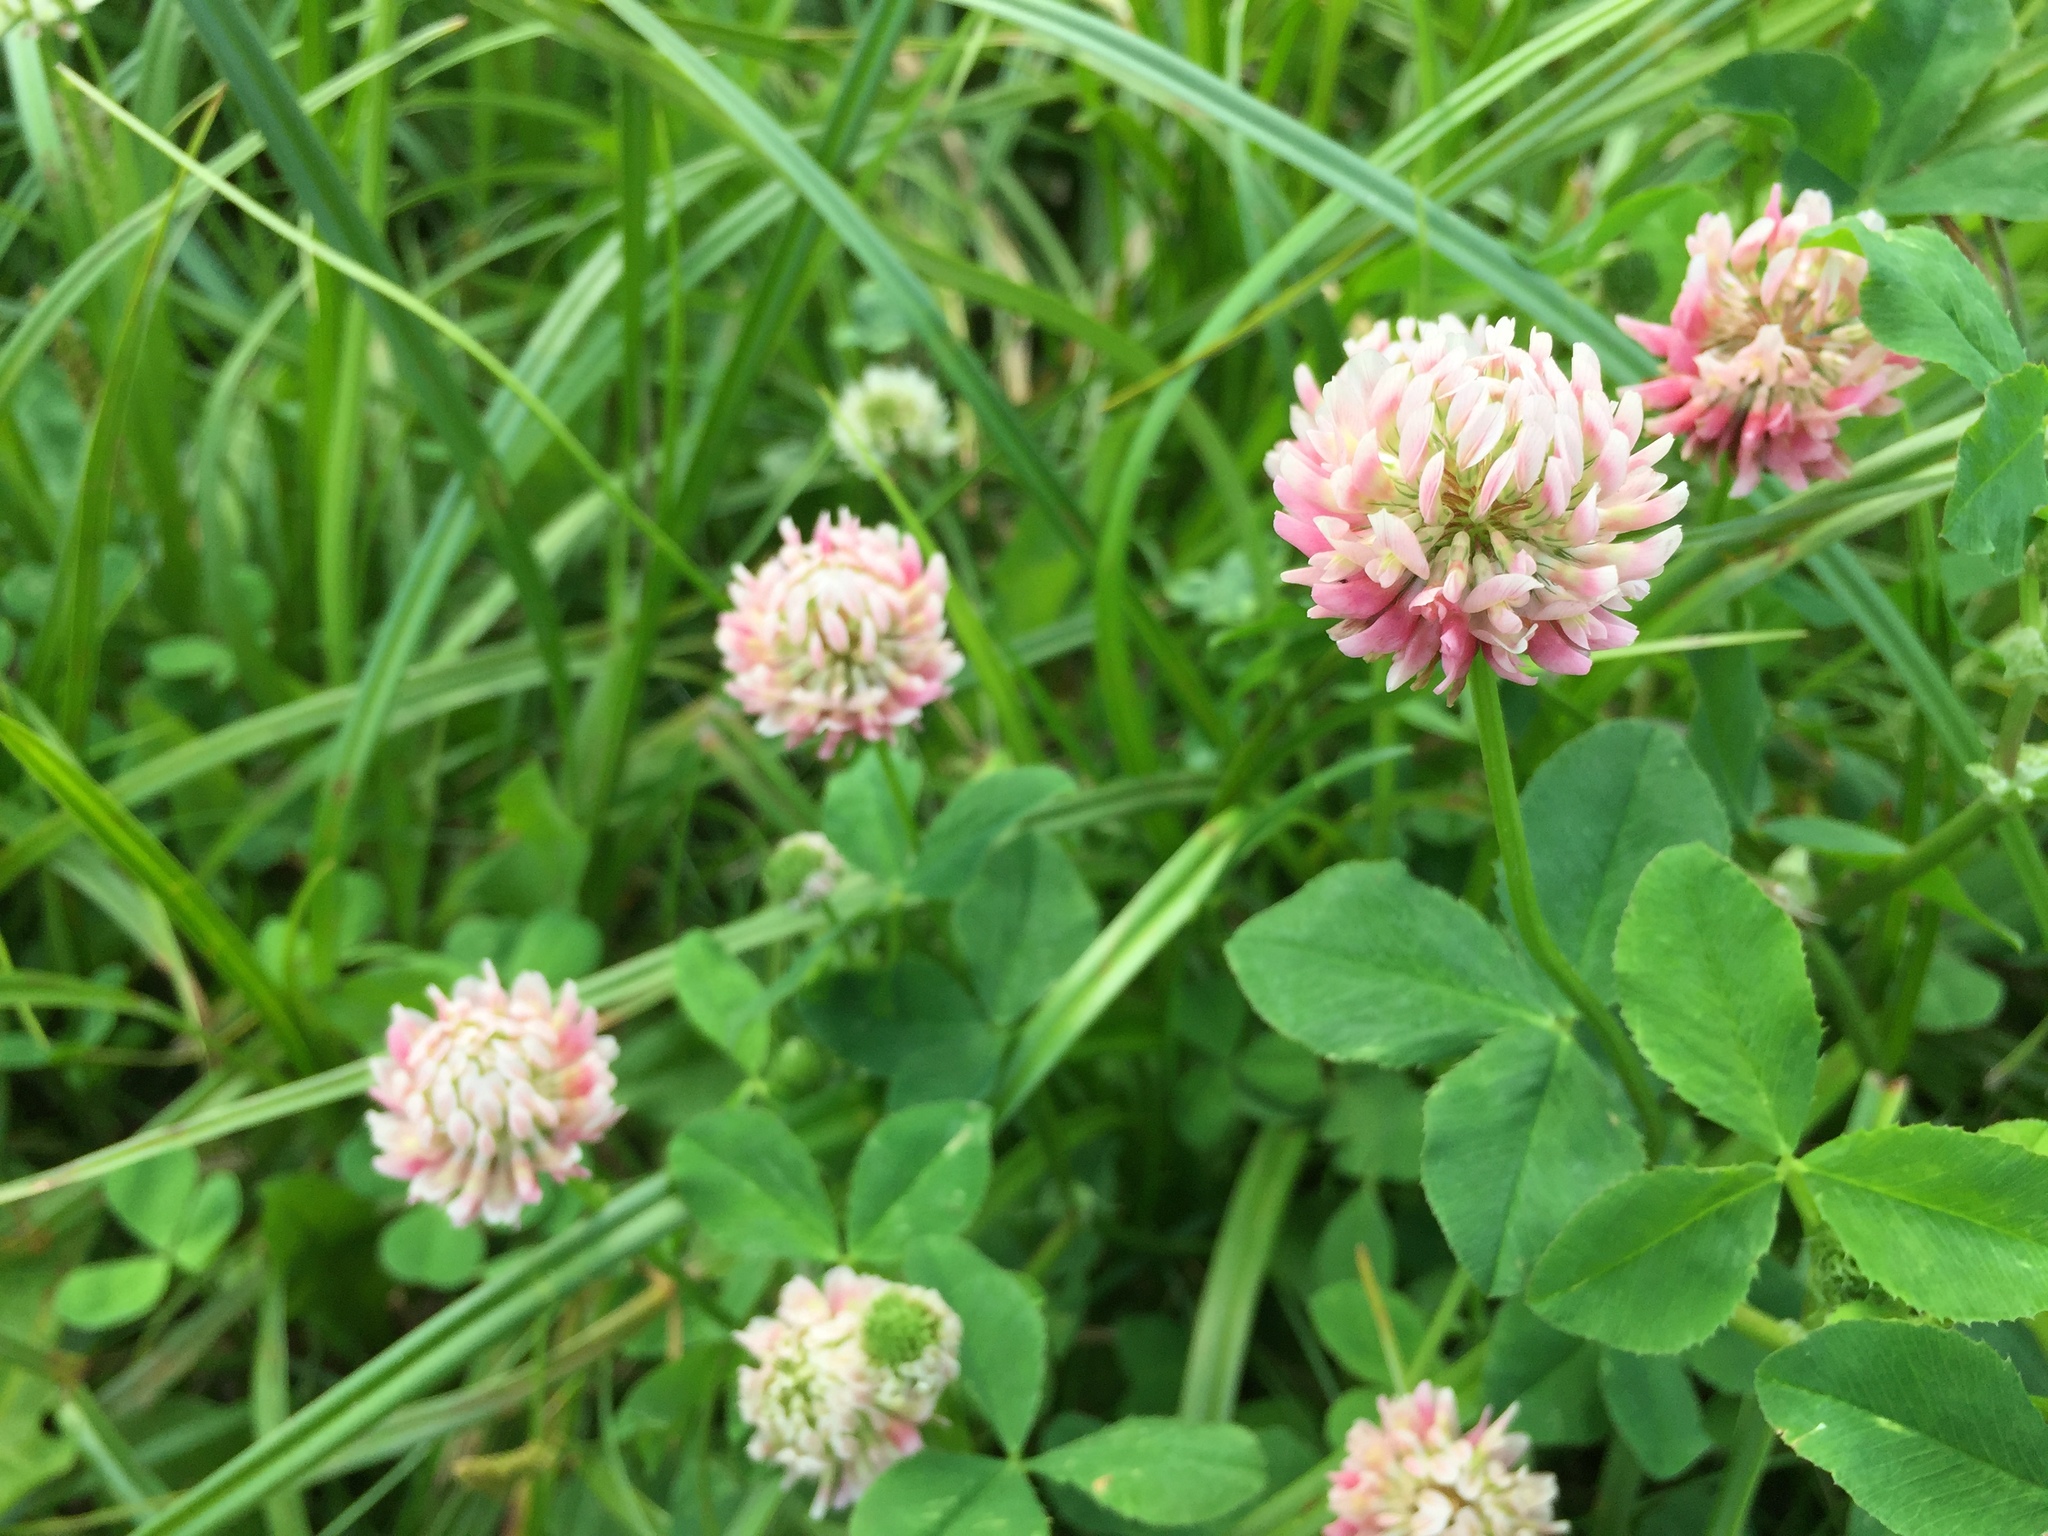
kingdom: Plantae
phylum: Tracheophyta
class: Magnoliopsida
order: Fabales
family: Fabaceae
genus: Trifolium
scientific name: Trifolium hybridum
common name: Alsike clover
